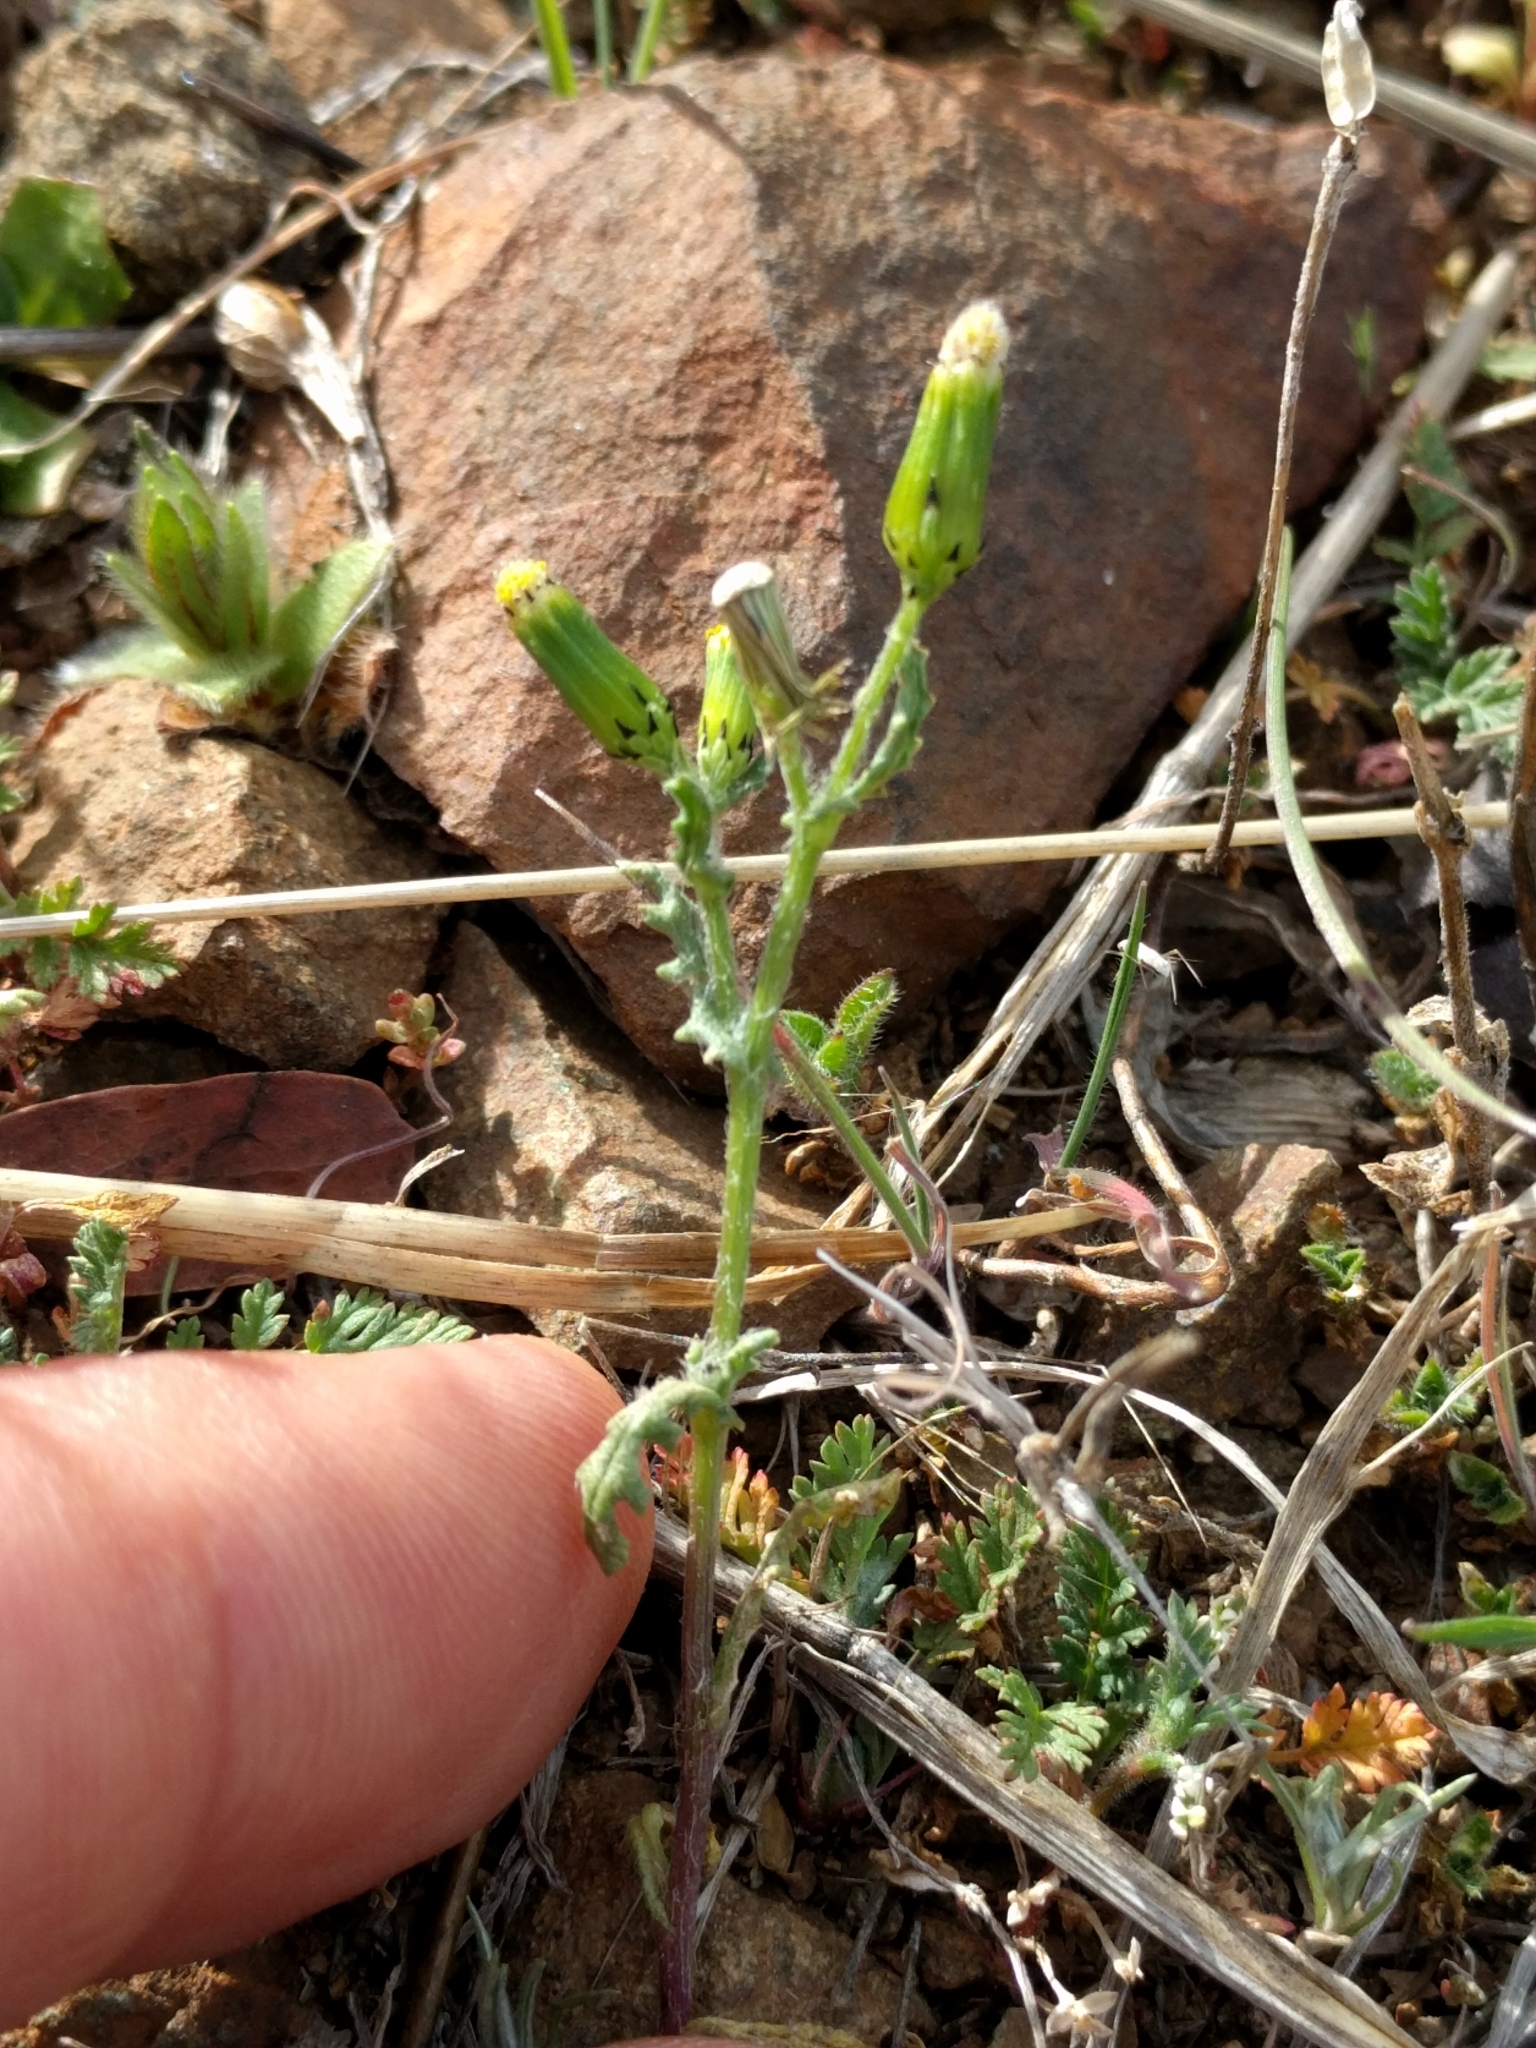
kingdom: Plantae
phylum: Tracheophyta
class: Magnoliopsida
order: Asterales
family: Asteraceae
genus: Senecio
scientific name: Senecio vulgaris
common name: Old-man-in-the-spring
